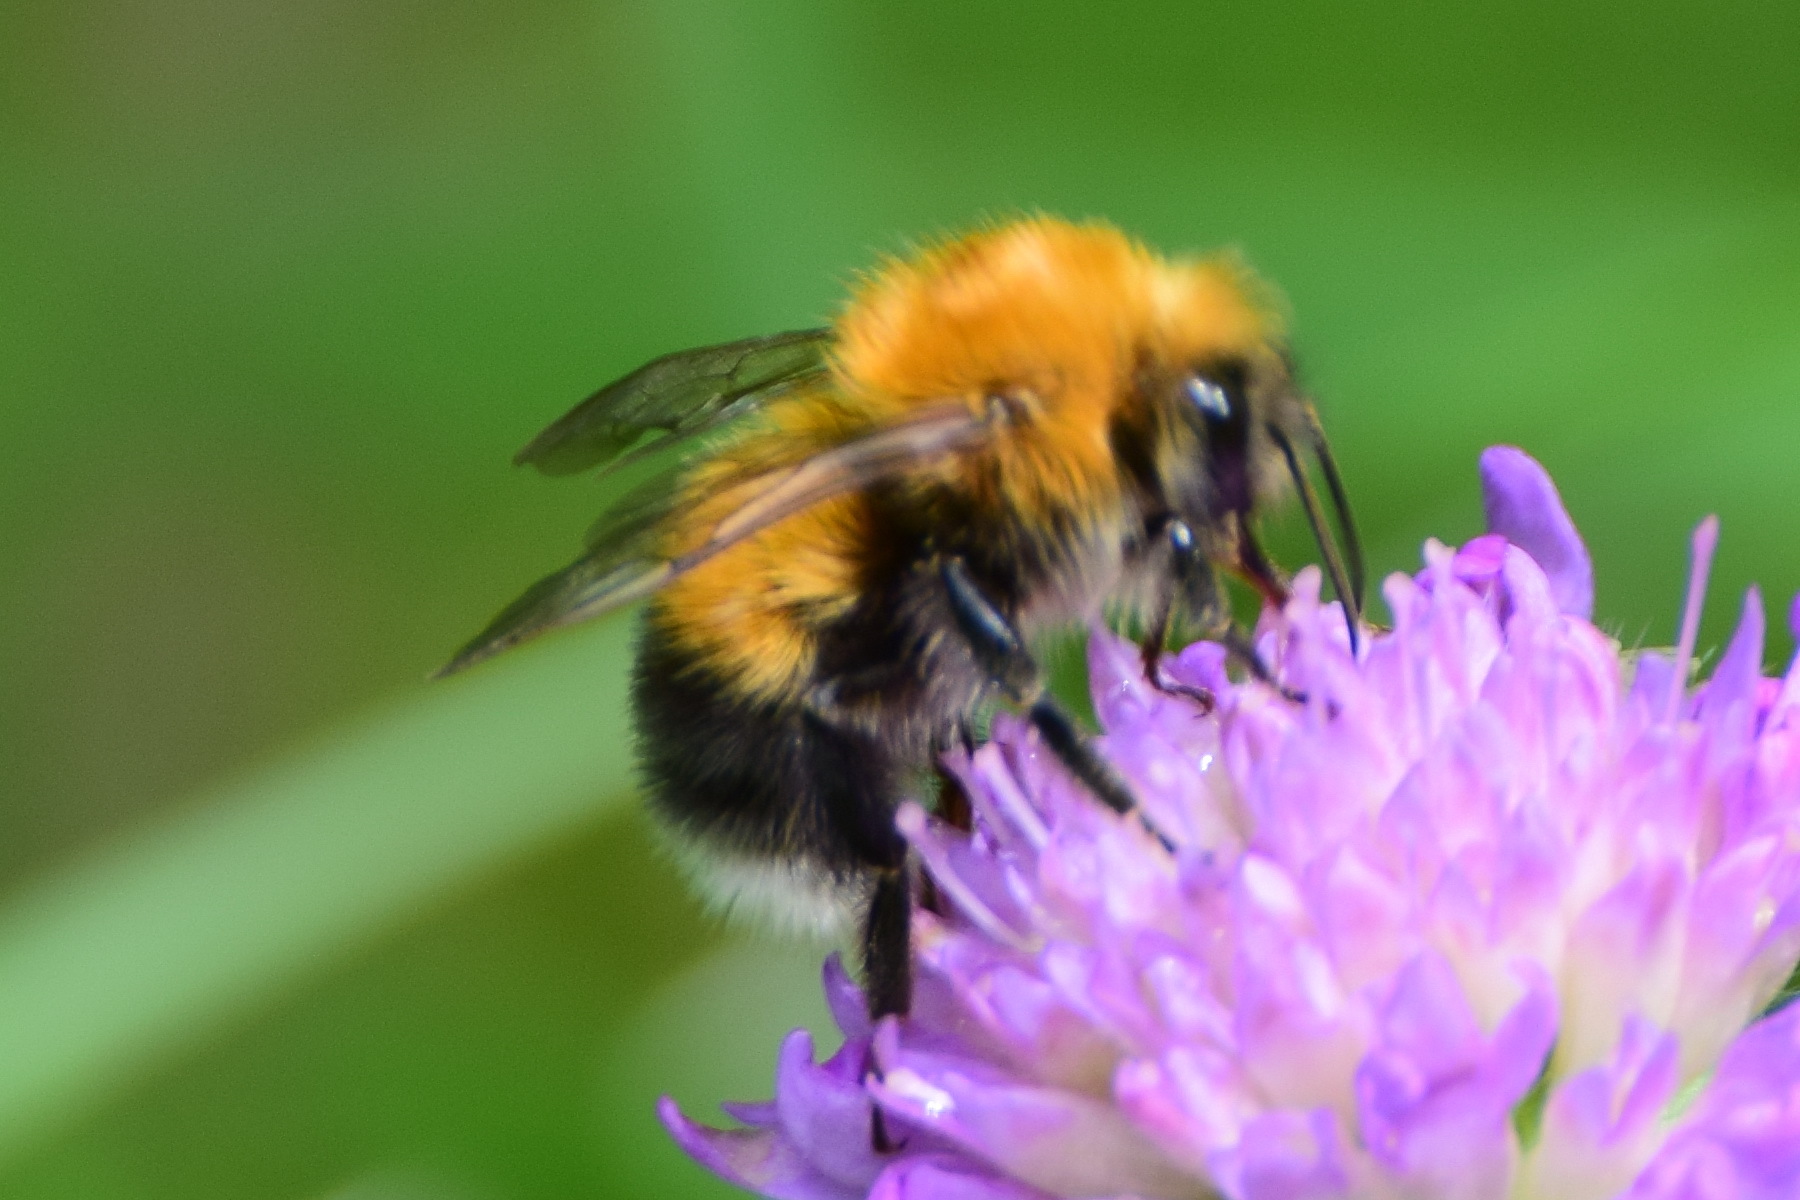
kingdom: Animalia
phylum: Arthropoda
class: Insecta
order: Hymenoptera
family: Apidae
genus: Bombus
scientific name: Bombus hypnorum
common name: New garden bumblebee
